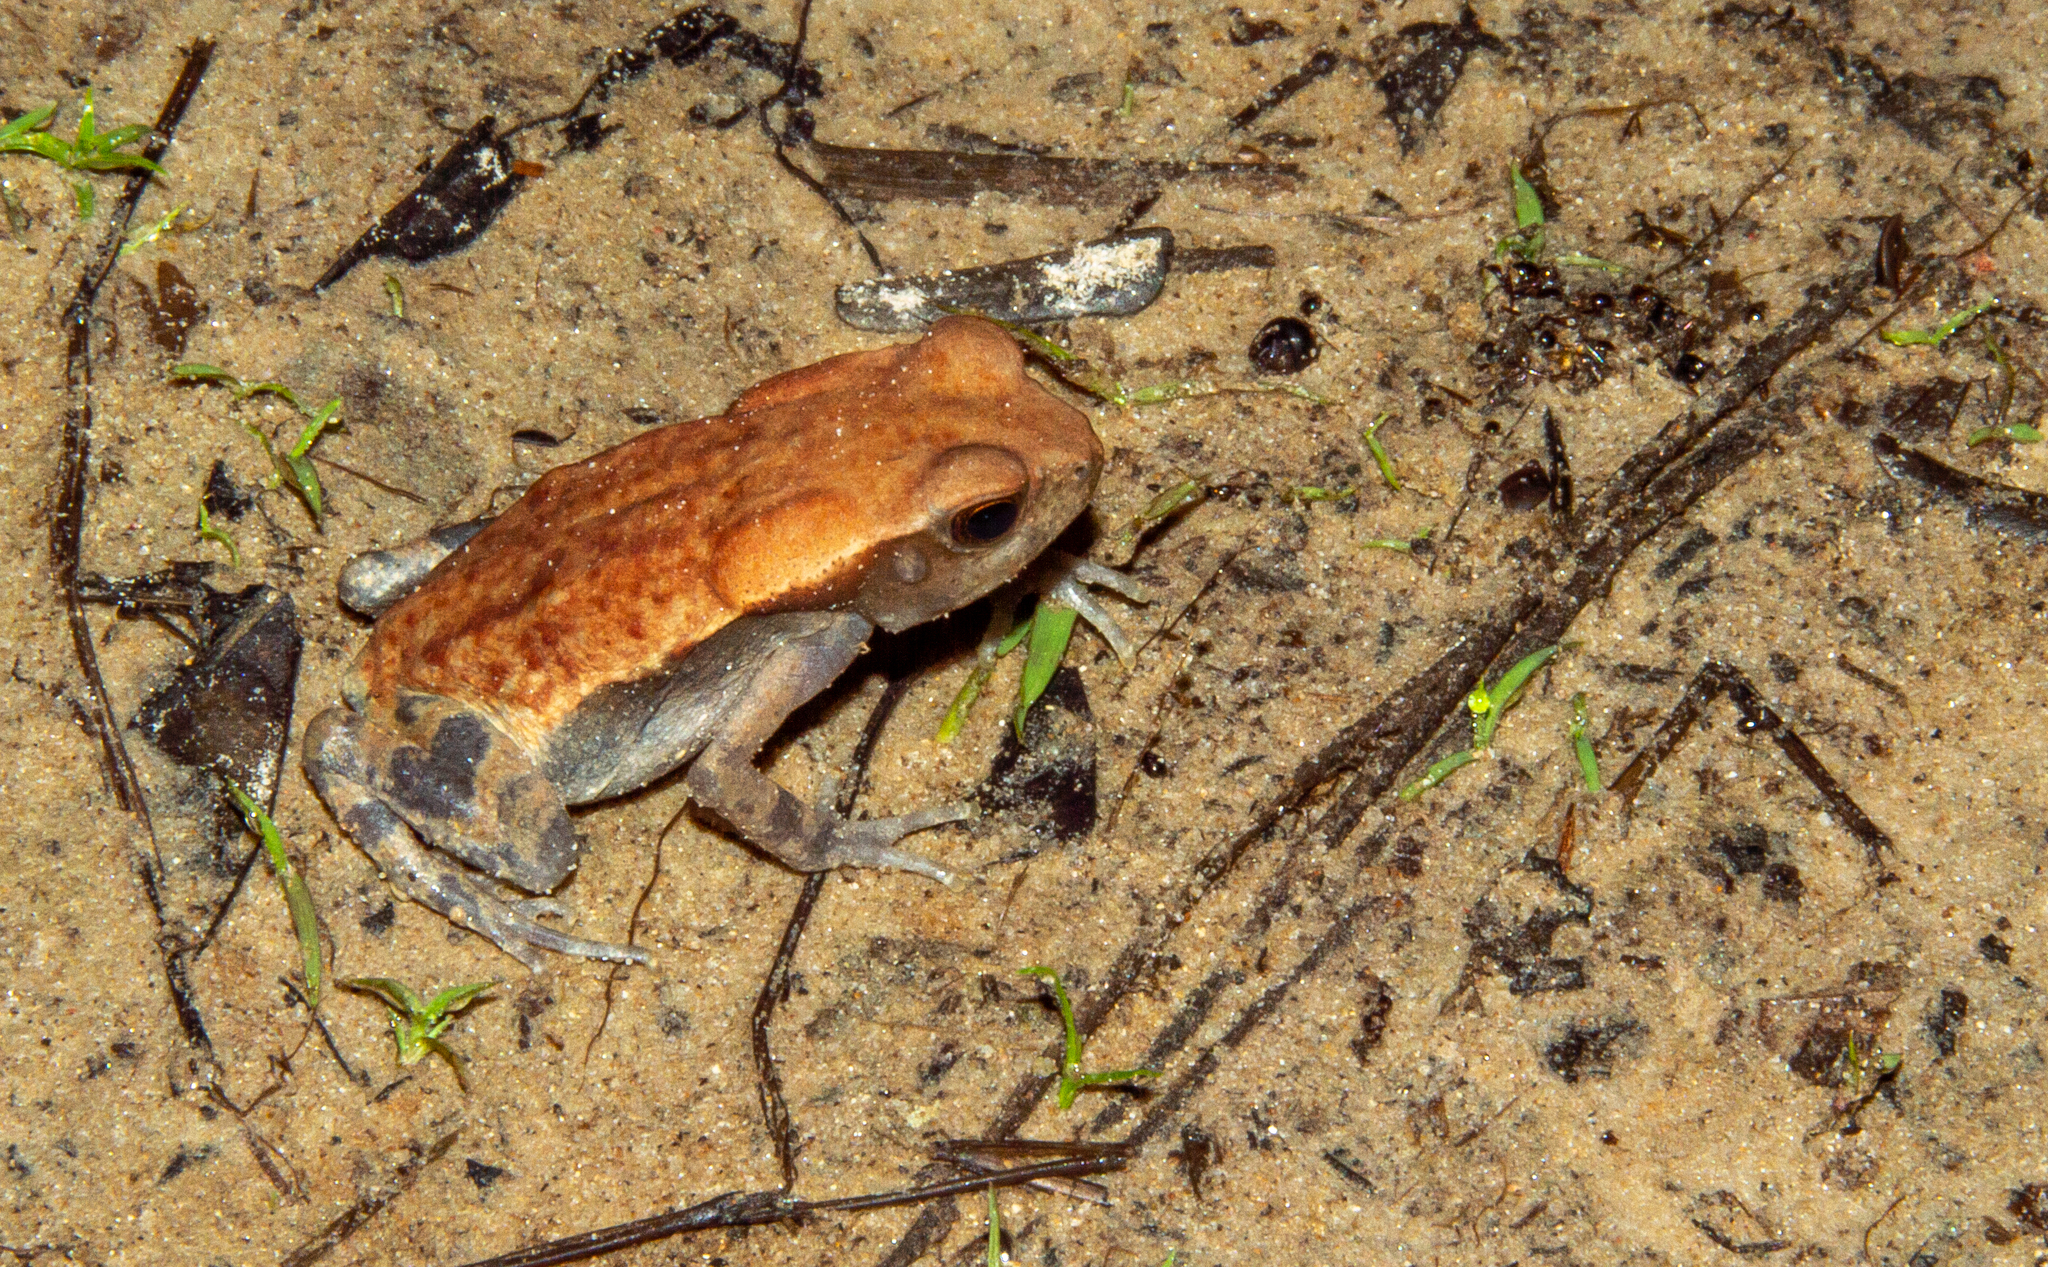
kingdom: Animalia
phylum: Chordata
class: Amphibia
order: Anura
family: Bufonidae
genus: Rhaebo
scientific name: Rhaebo guttatus
